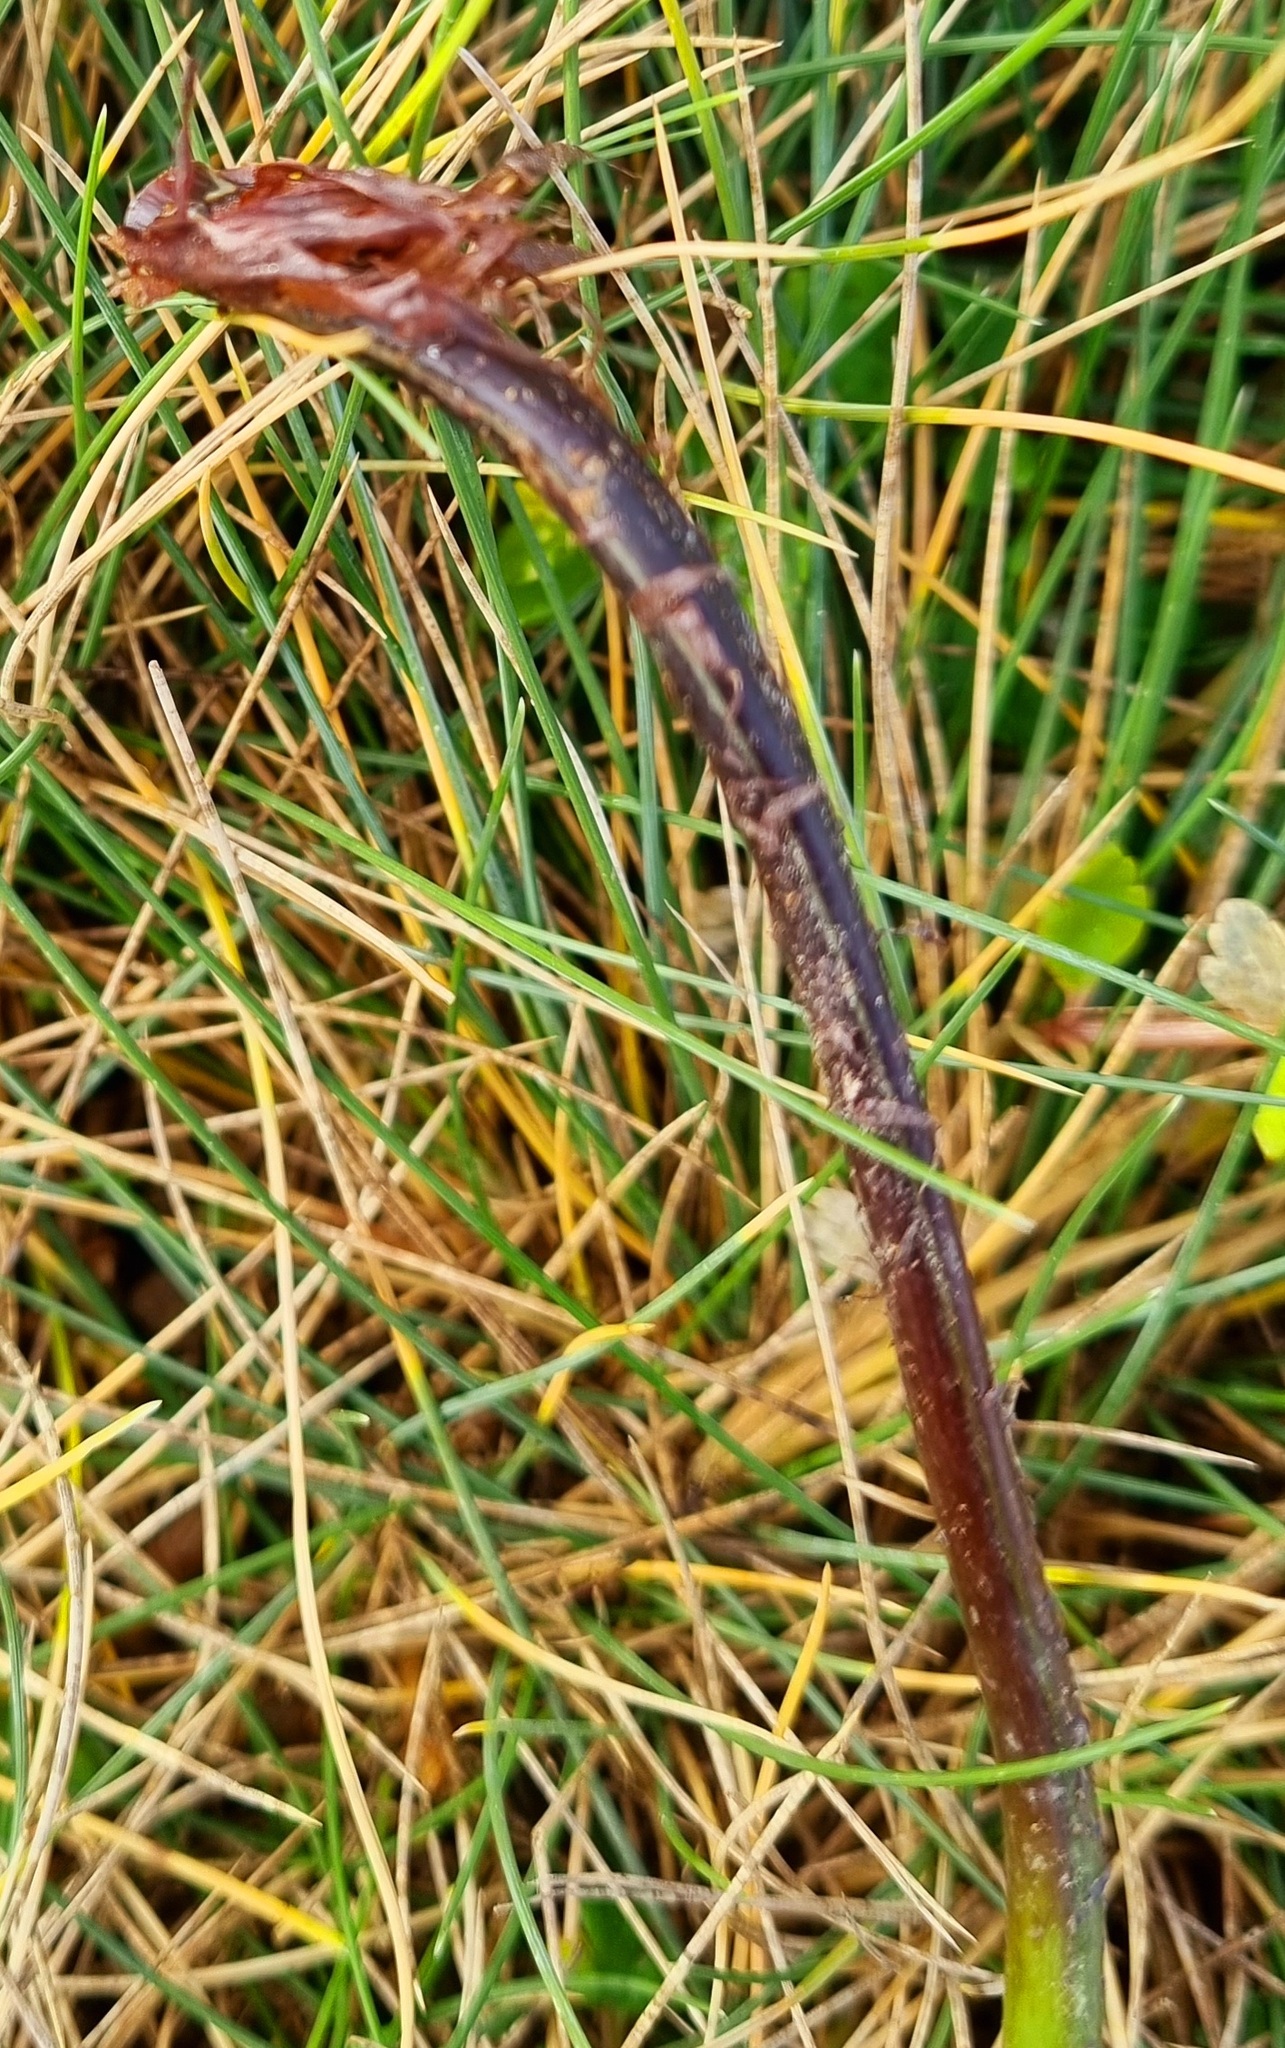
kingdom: Plantae
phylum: Tracheophyta
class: Polypodiopsida
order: Polypodiales
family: Aspleniaceae
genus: Asplenium
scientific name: Asplenium obtusatum
